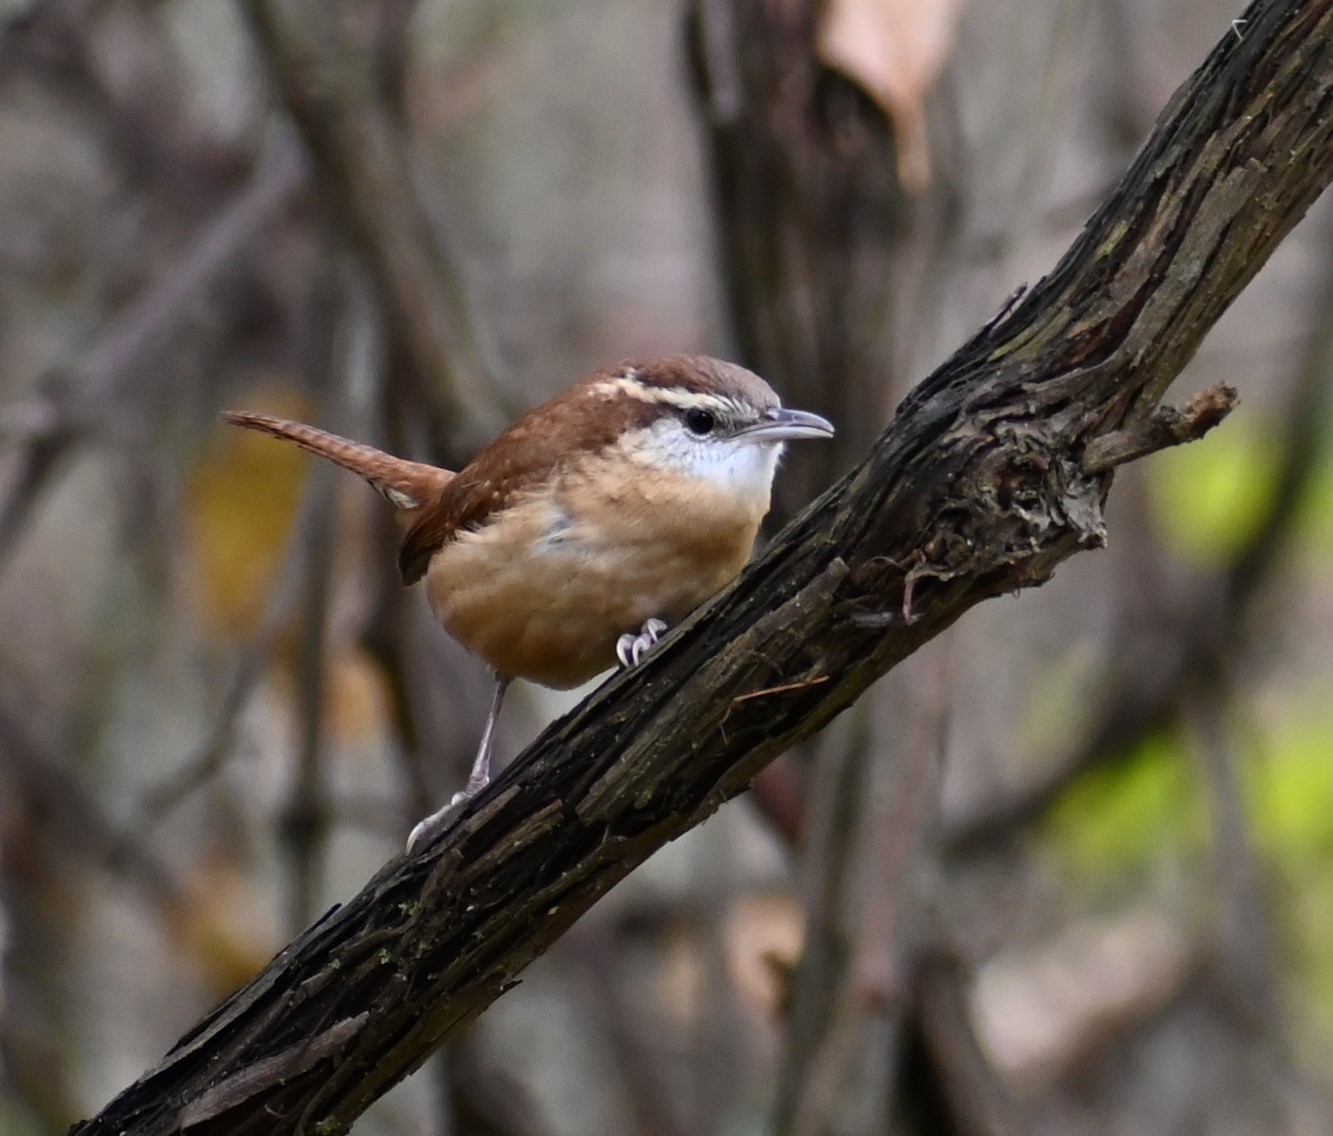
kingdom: Animalia
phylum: Chordata
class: Aves
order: Passeriformes
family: Troglodytidae
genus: Thryothorus
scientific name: Thryothorus ludovicianus
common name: Carolina wren
